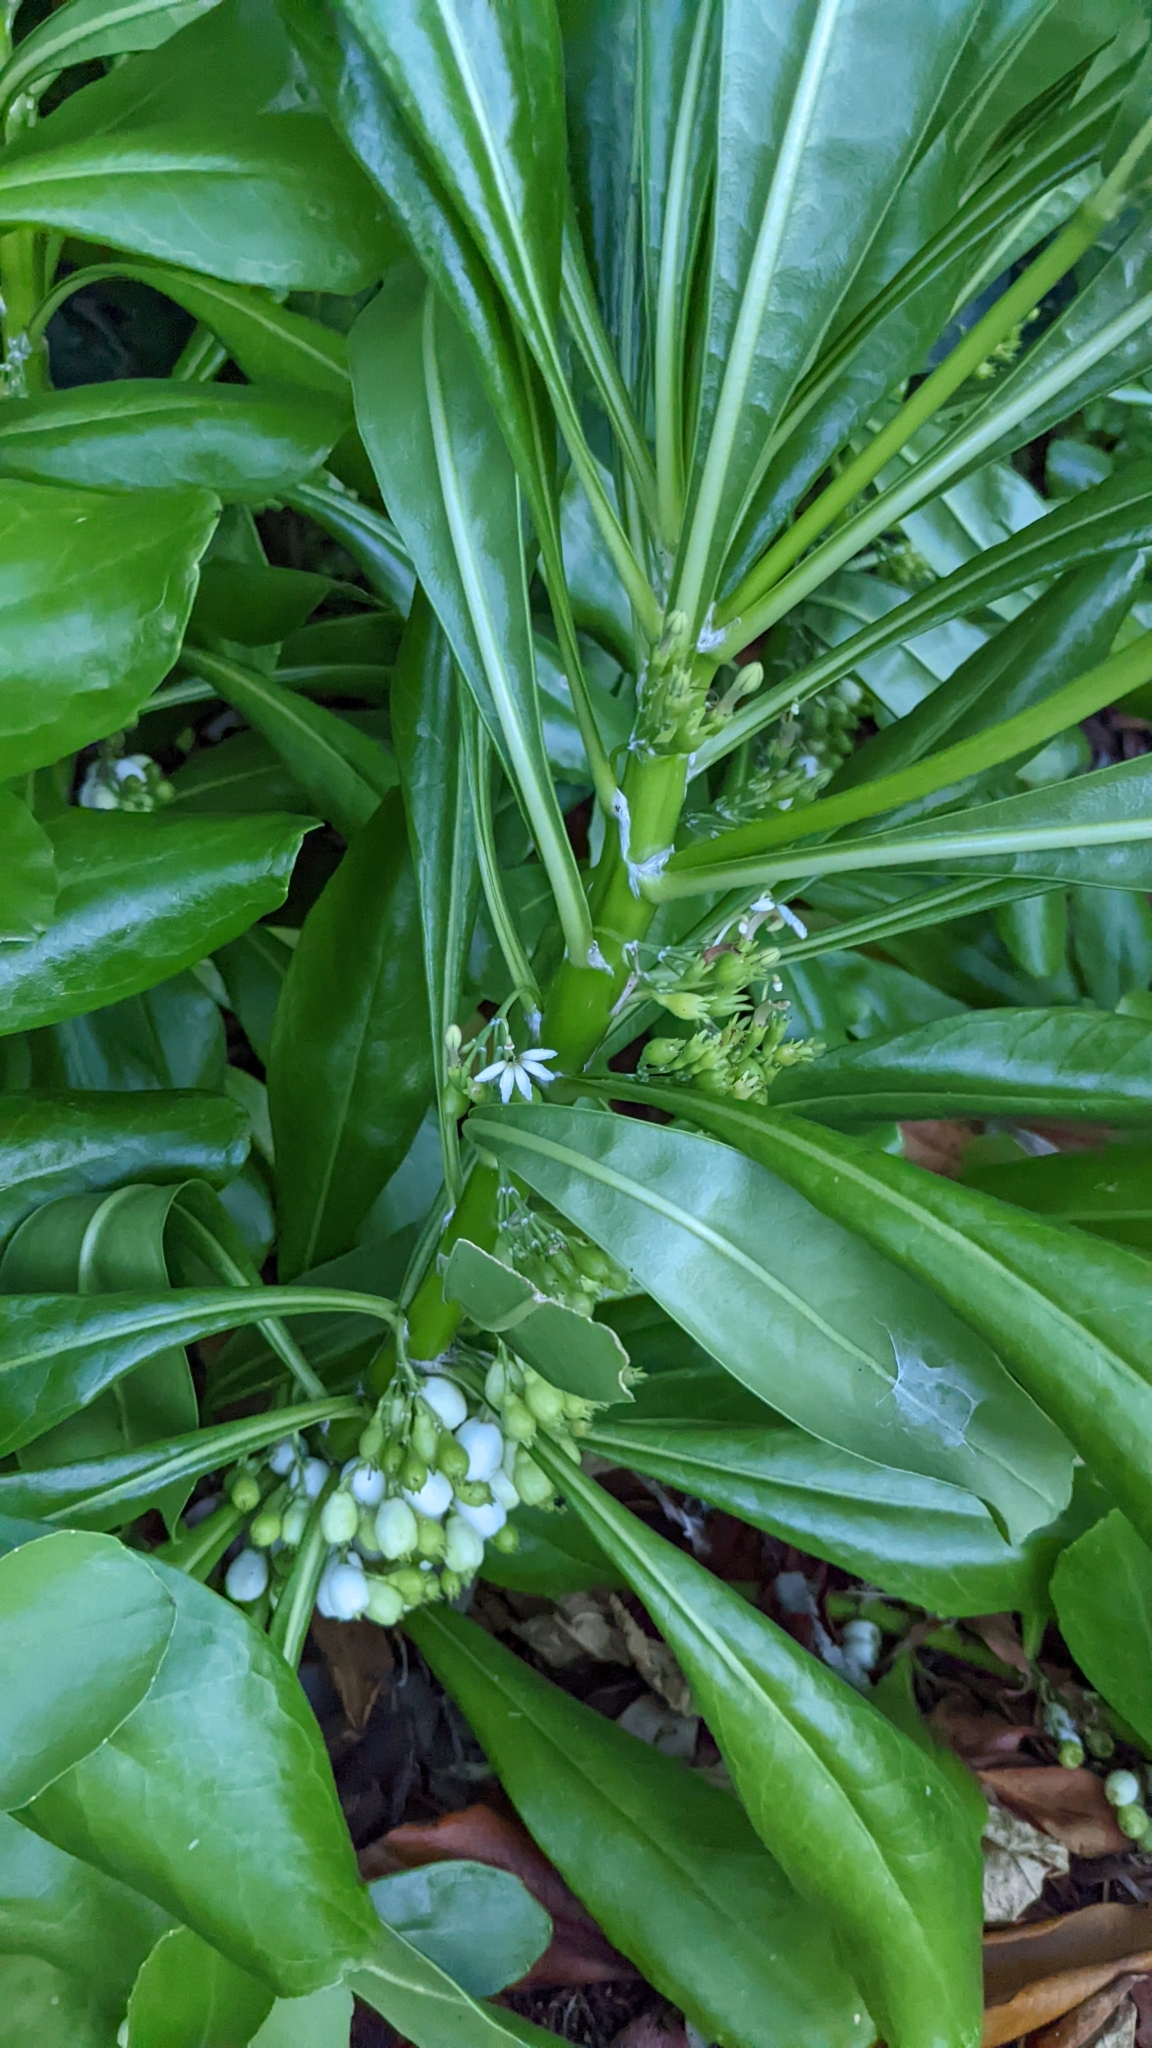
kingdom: Plantae
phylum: Tracheophyta
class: Magnoliopsida
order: Asterales
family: Goodeniaceae
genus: Scaevola
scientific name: Scaevola taccada
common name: Sea lettucetree
